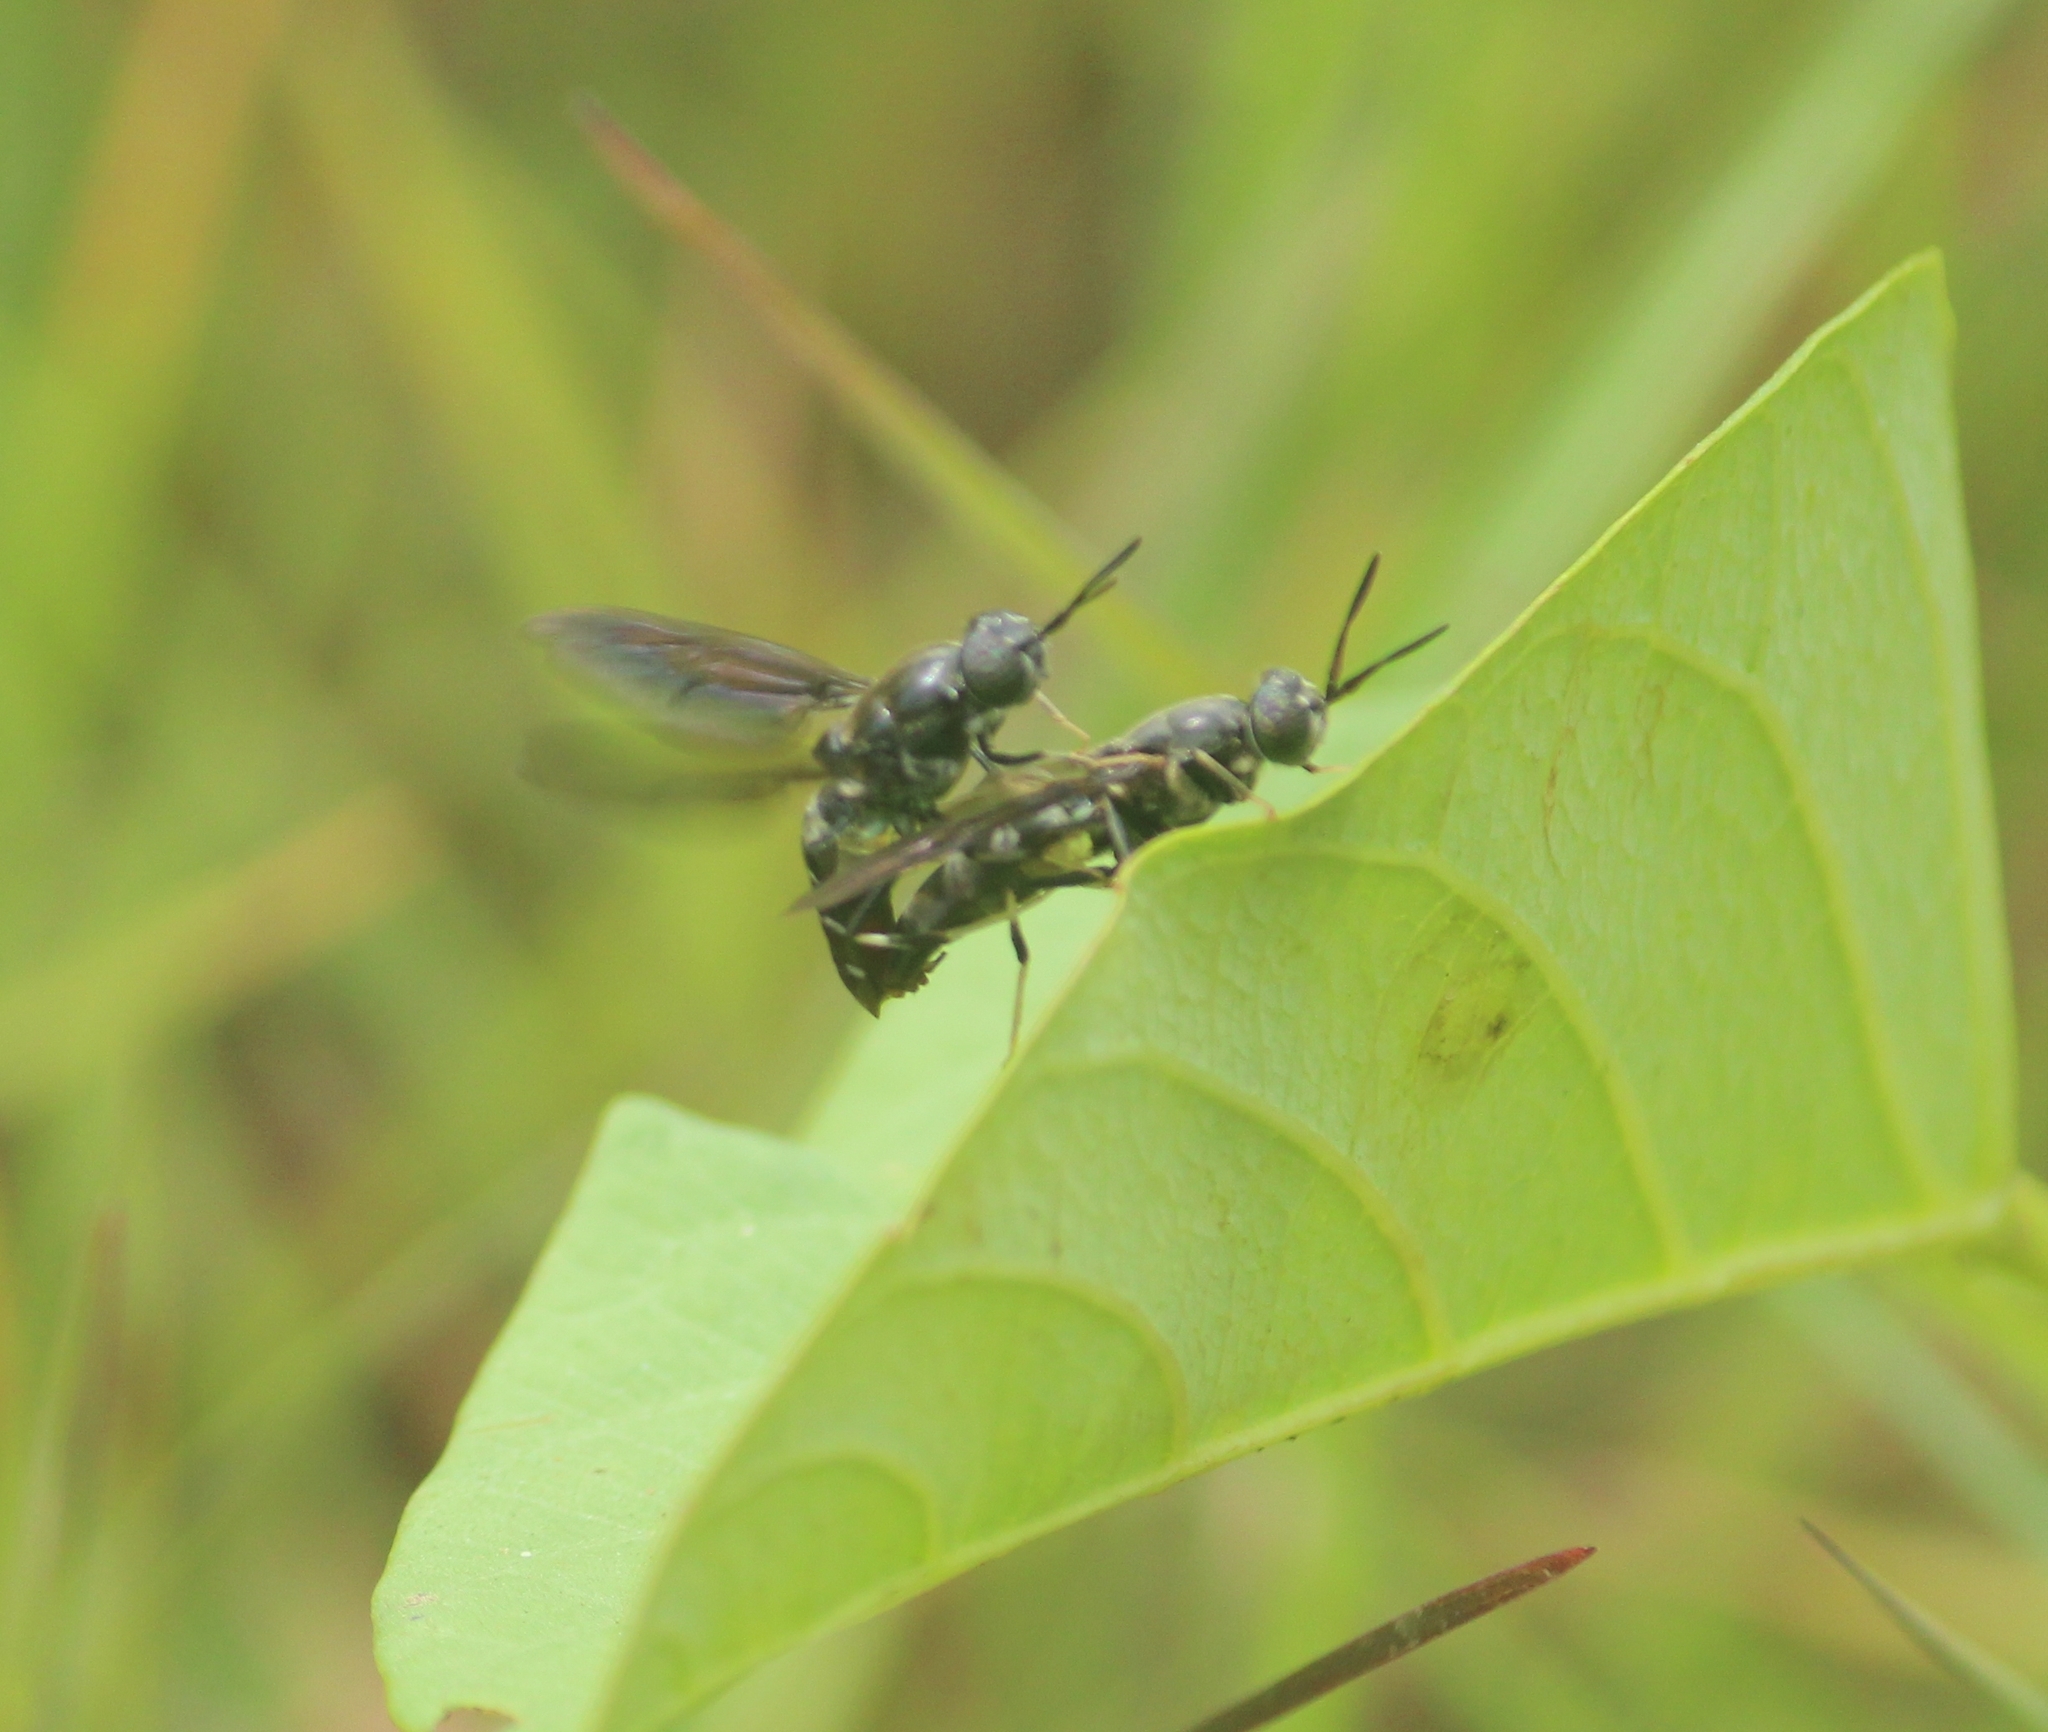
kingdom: Animalia
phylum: Arthropoda
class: Insecta
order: Diptera
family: Stratiomyidae
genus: Hermetia
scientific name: Hermetia illucens
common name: Black soldier fly
